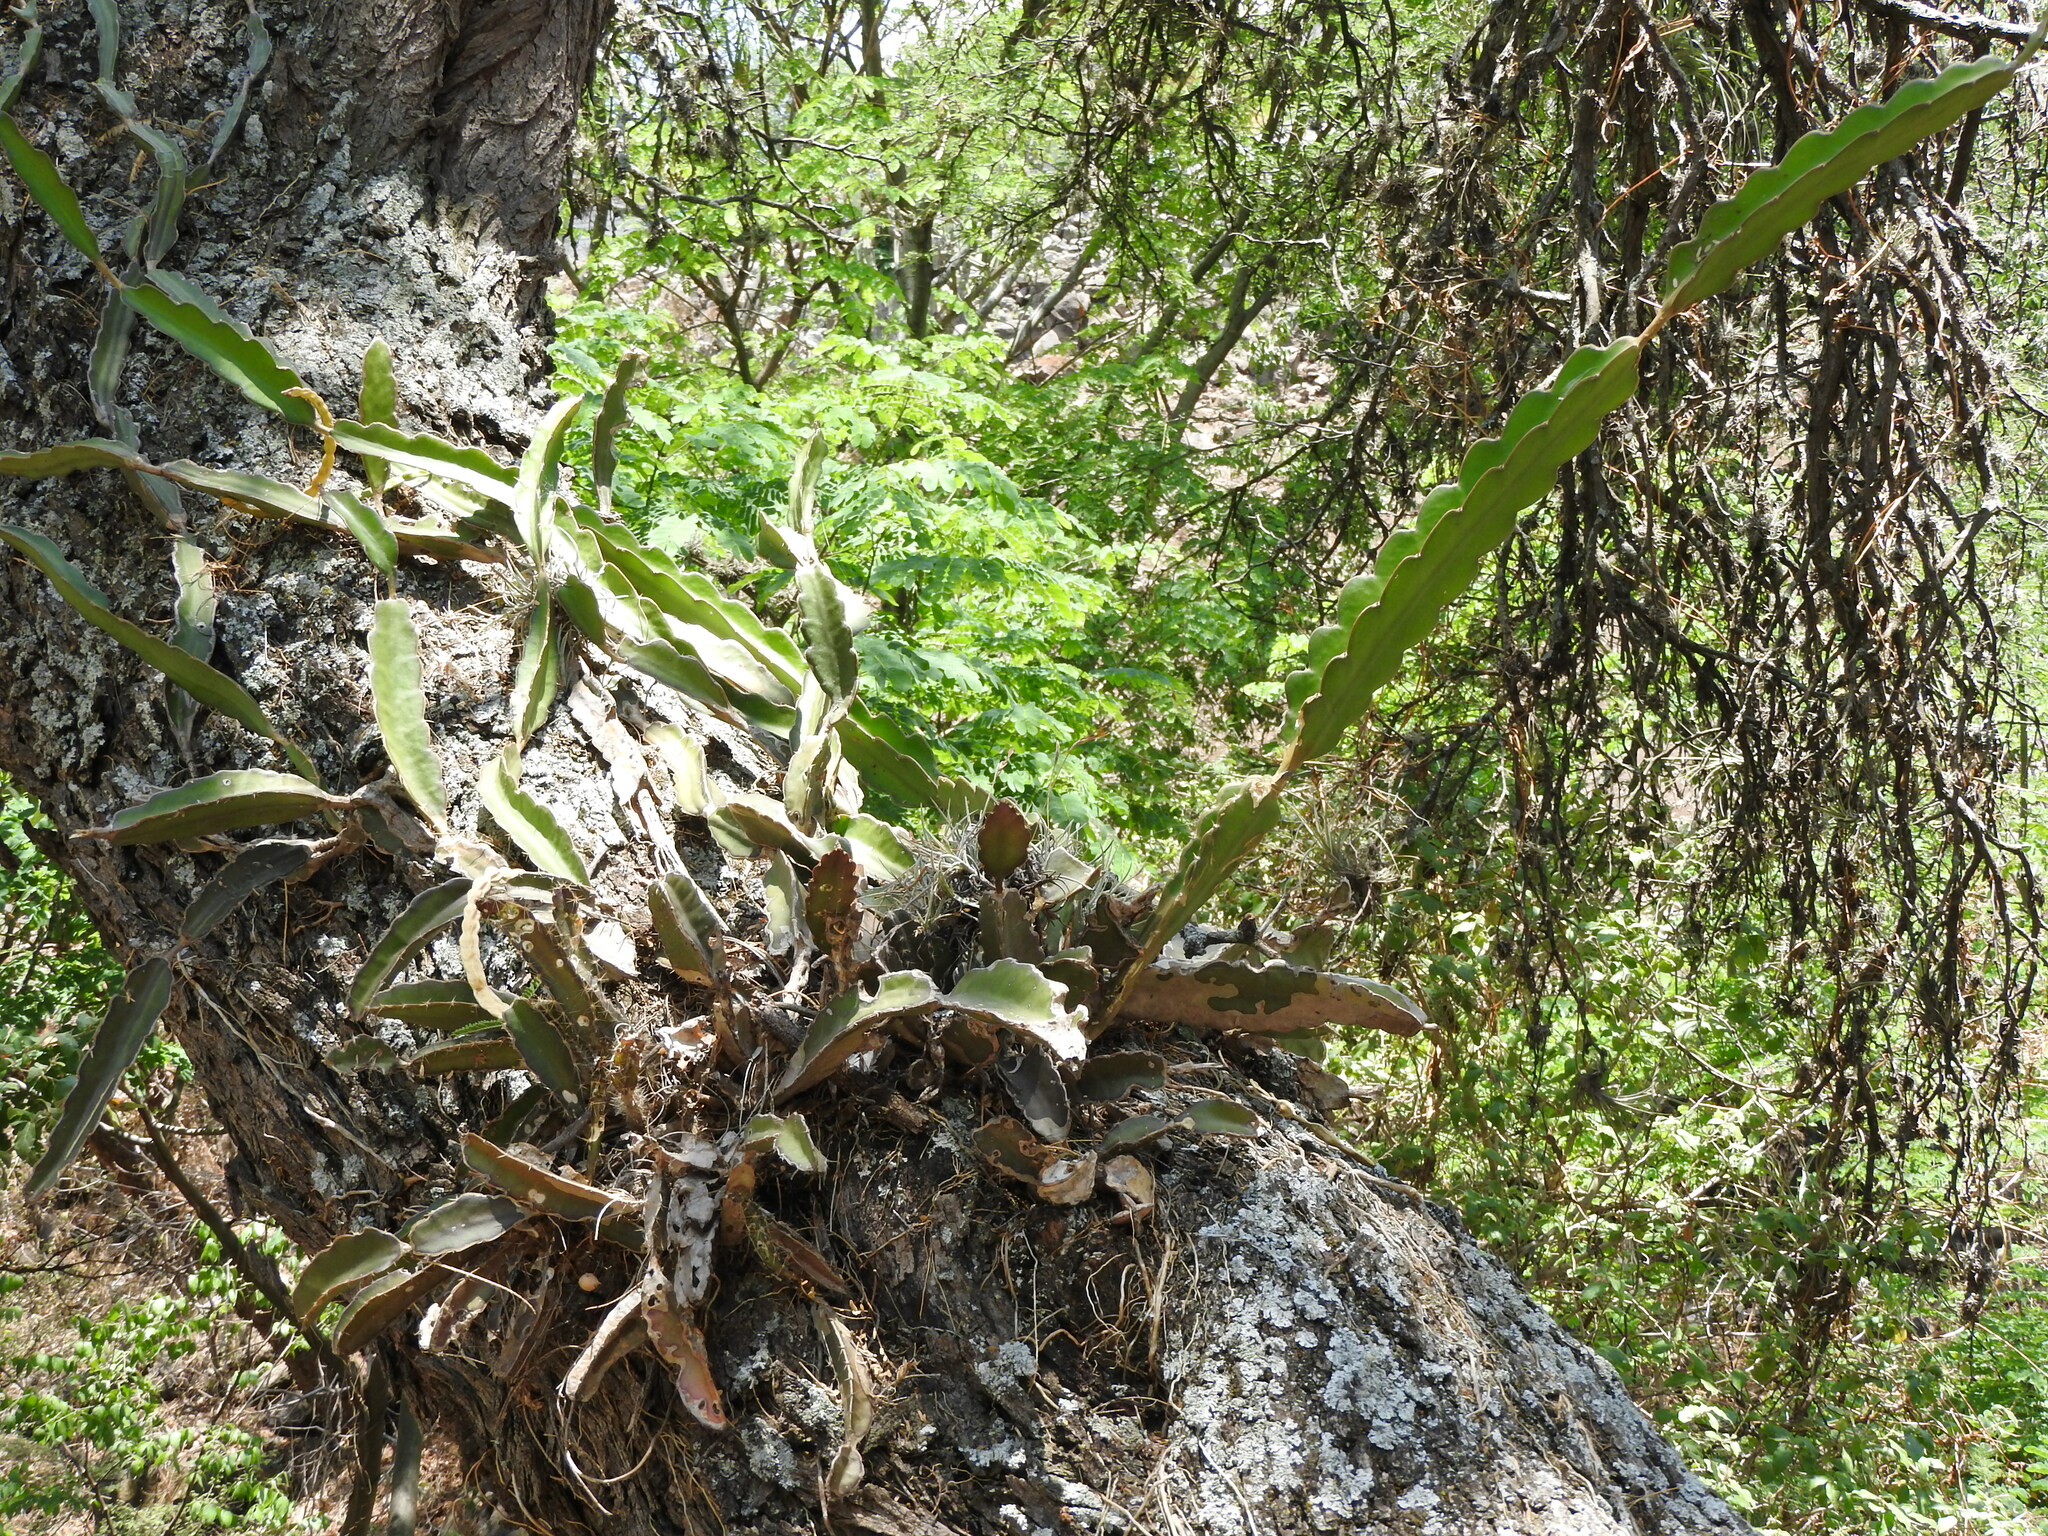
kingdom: Plantae
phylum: Tracheophyta
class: Magnoliopsida
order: Caryophyllales
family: Cactaceae
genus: Selenicereus
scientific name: Selenicereus undatus
